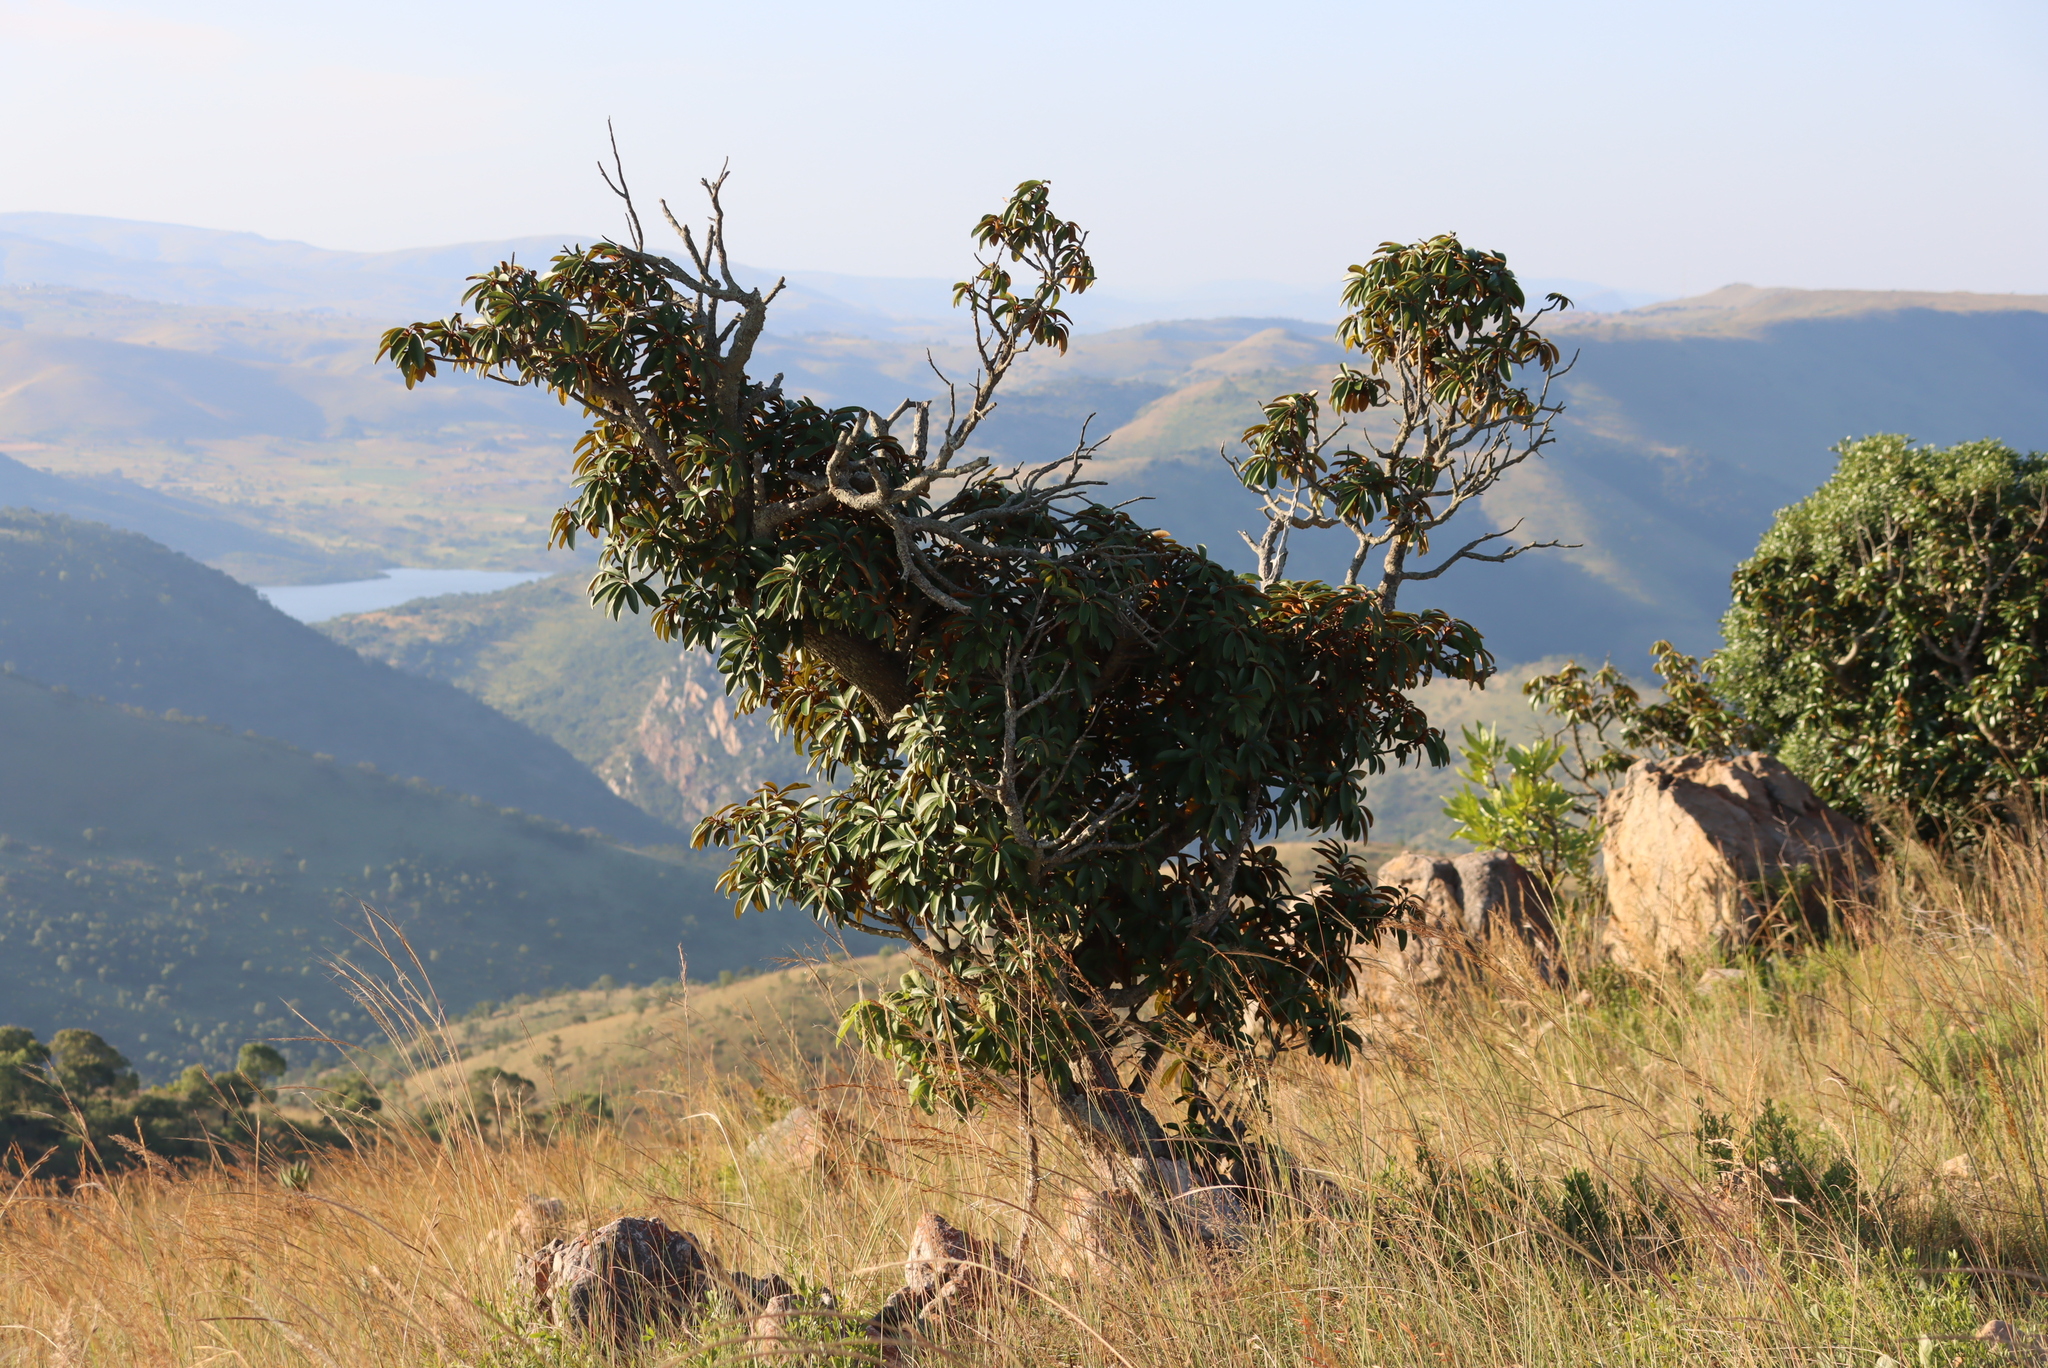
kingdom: Plantae
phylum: Tracheophyta
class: Magnoliopsida
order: Ericales
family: Sapotaceae
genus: Englerophytum
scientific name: Englerophytum magalismontanum
